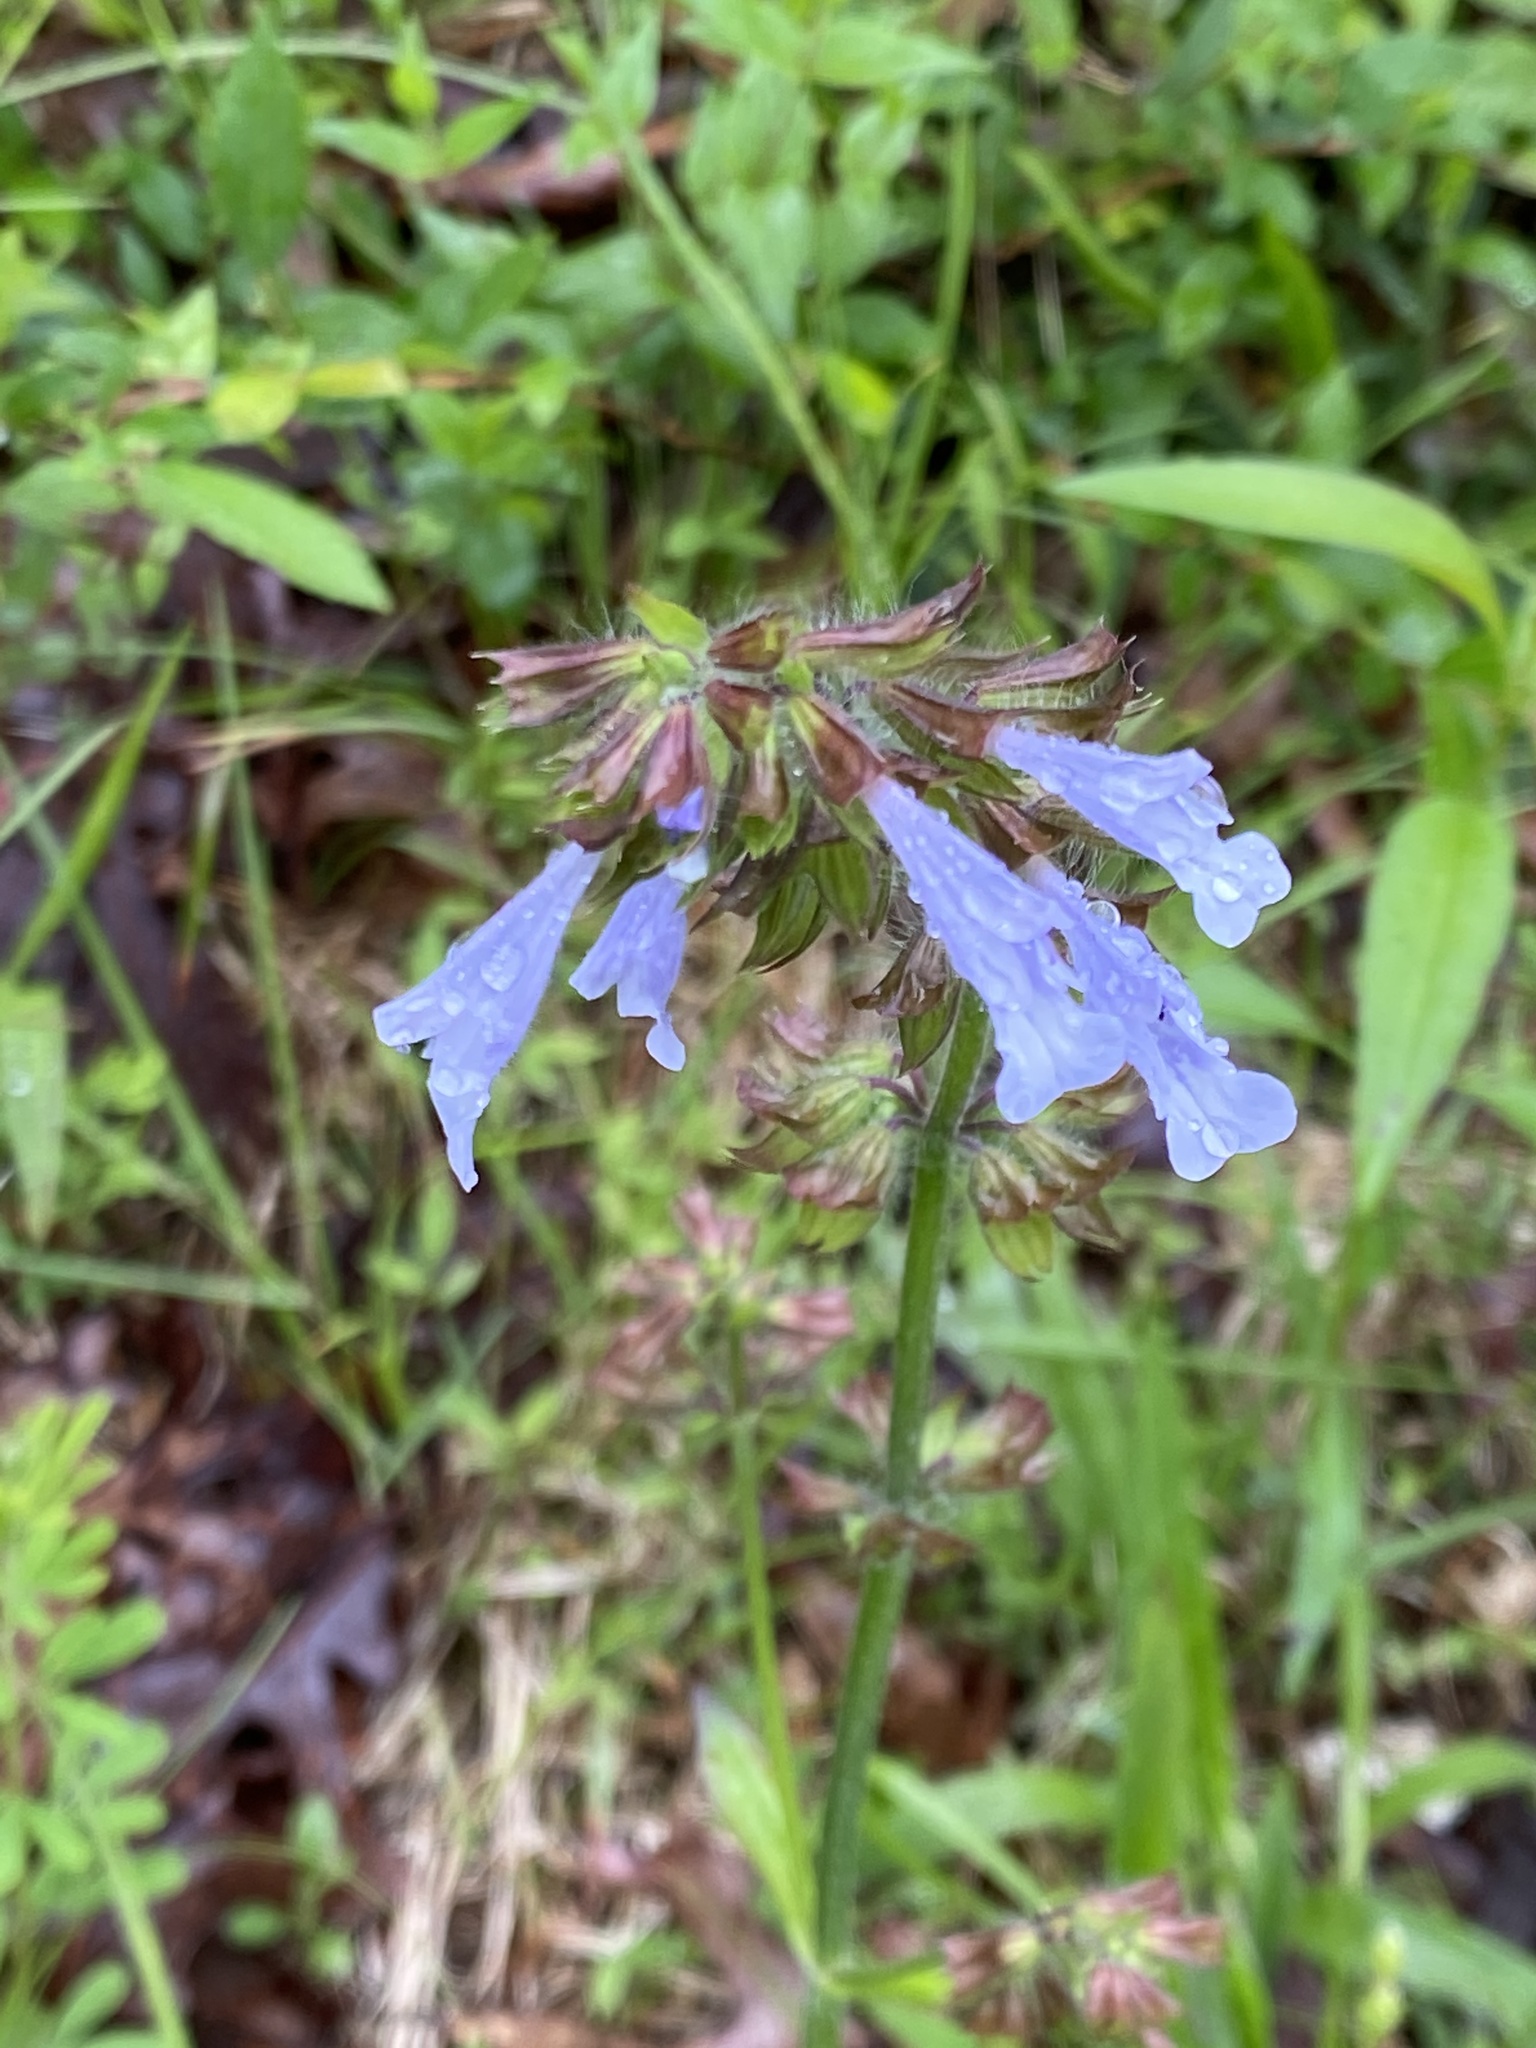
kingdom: Plantae
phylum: Tracheophyta
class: Magnoliopsida
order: Lamiales
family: Lamiaceae
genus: Salvia
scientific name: Salvia lyrata
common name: Cancerweed
